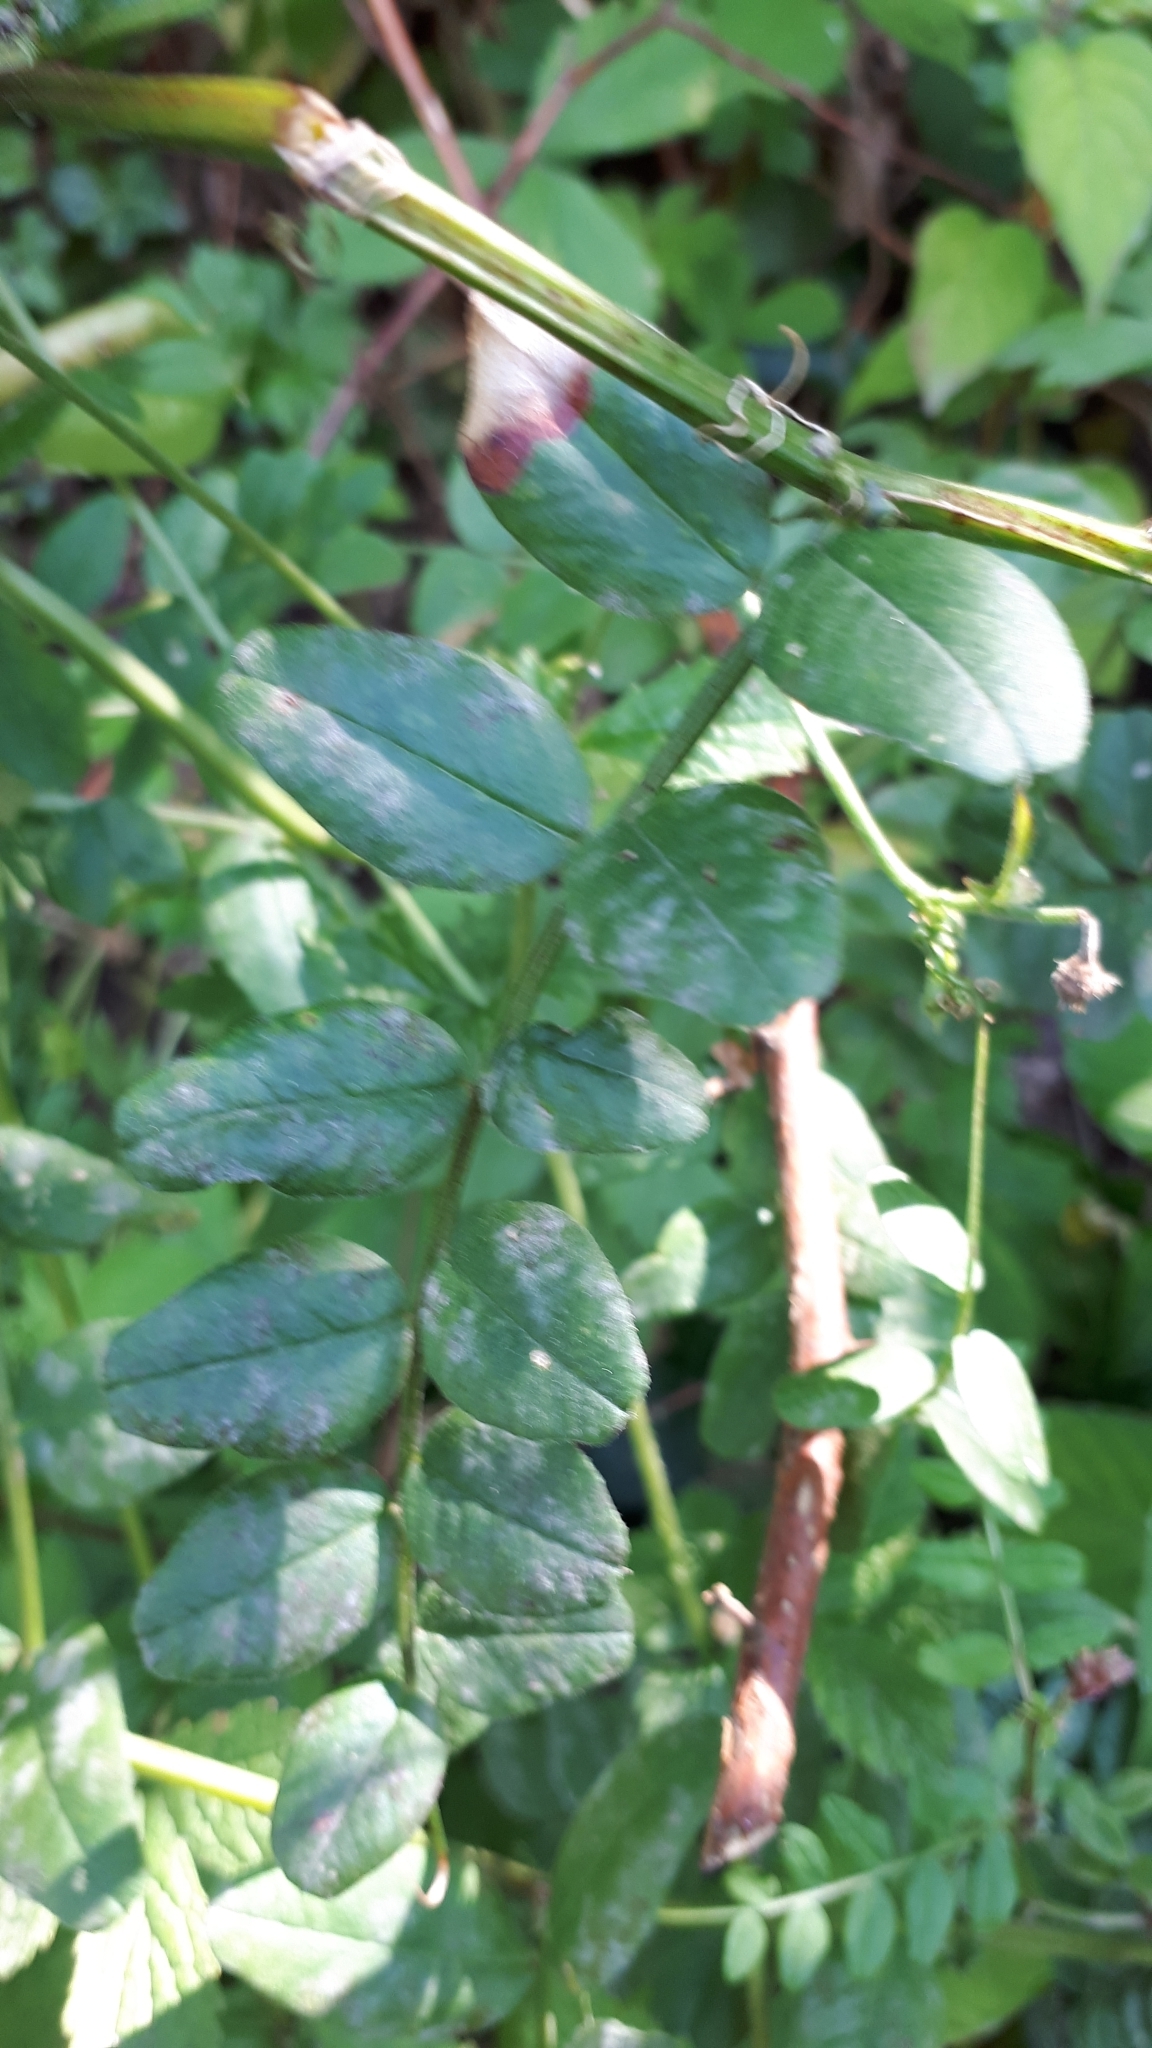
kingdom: Plantae
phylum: Tracheophyta
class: Magnoliopsida
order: Fabales
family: Fabaceae
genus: Vicia
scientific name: Vicia sepium
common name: Bush vetch
